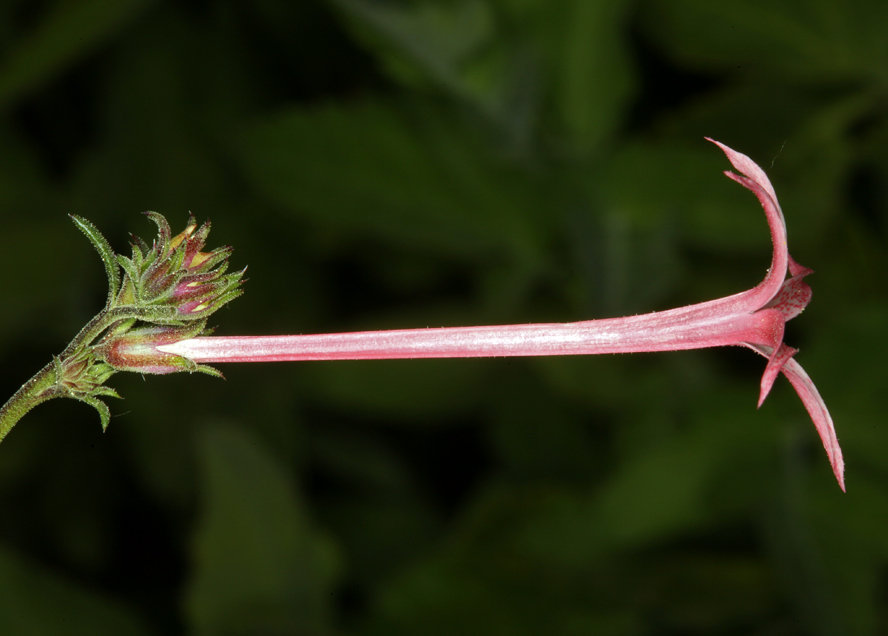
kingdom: Plantae
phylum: Tracheophyta
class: Magnoliopsida
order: Ericales
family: Polemoniaceae
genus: Ipomopsis
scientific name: Ipomopsis tenuituba
